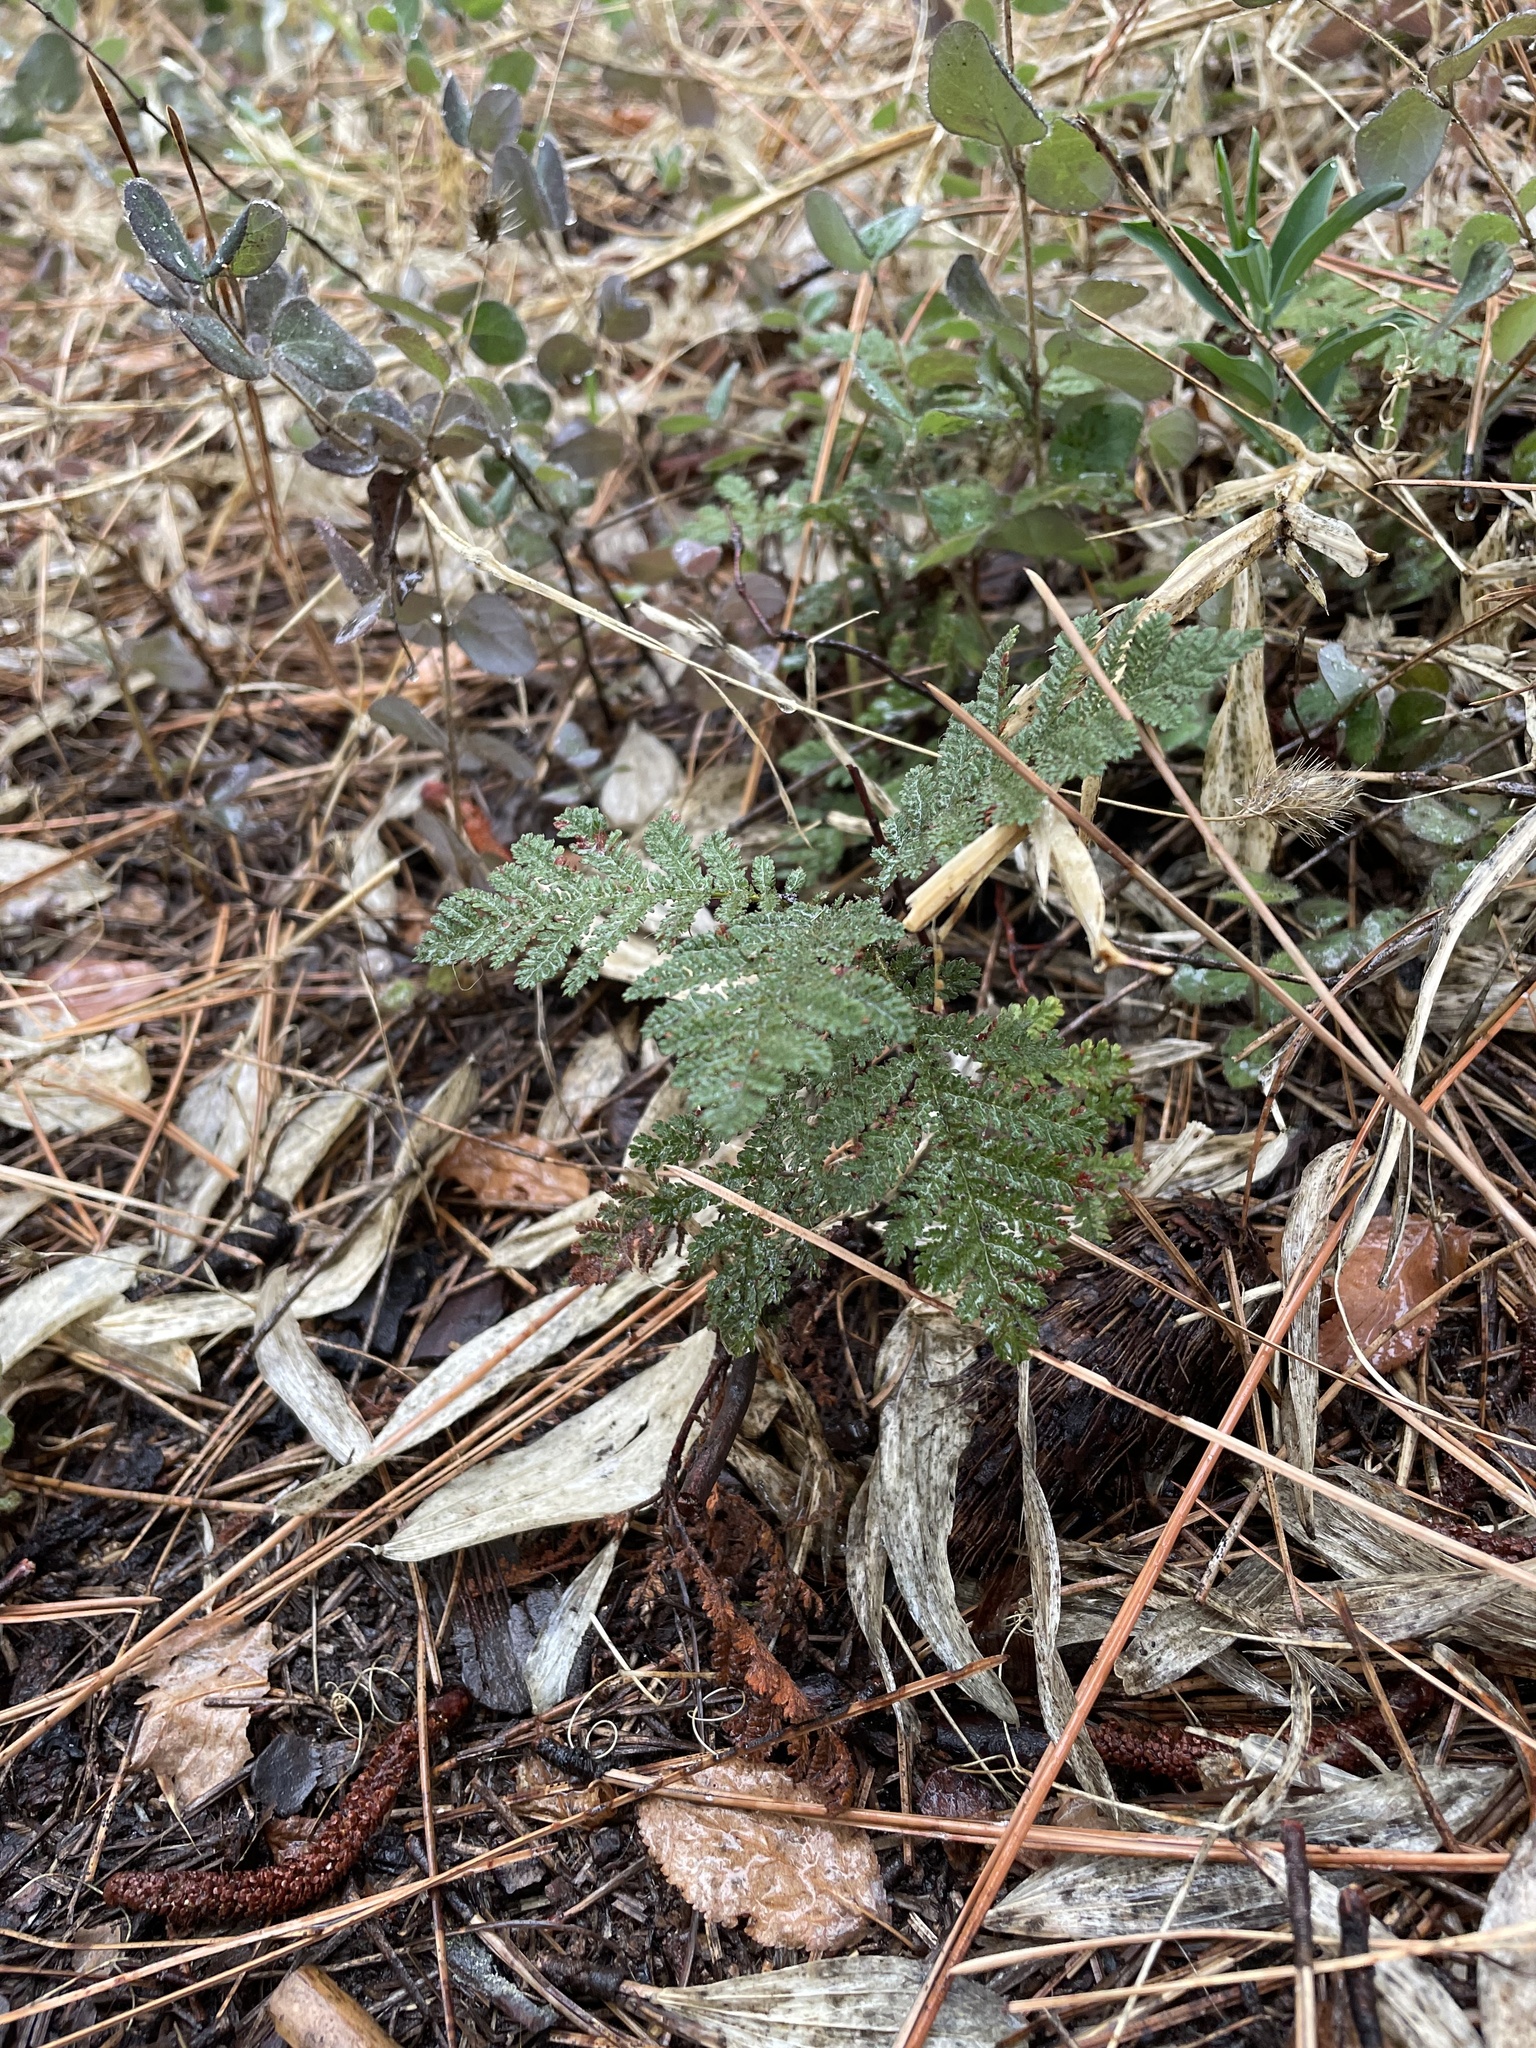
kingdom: Plantae
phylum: Tracheophyta
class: Magnoliopsida
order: Rosales
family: Rosaceae
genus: Chamaebatia
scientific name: Chamaebatia foliolosa
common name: Mountain misery
